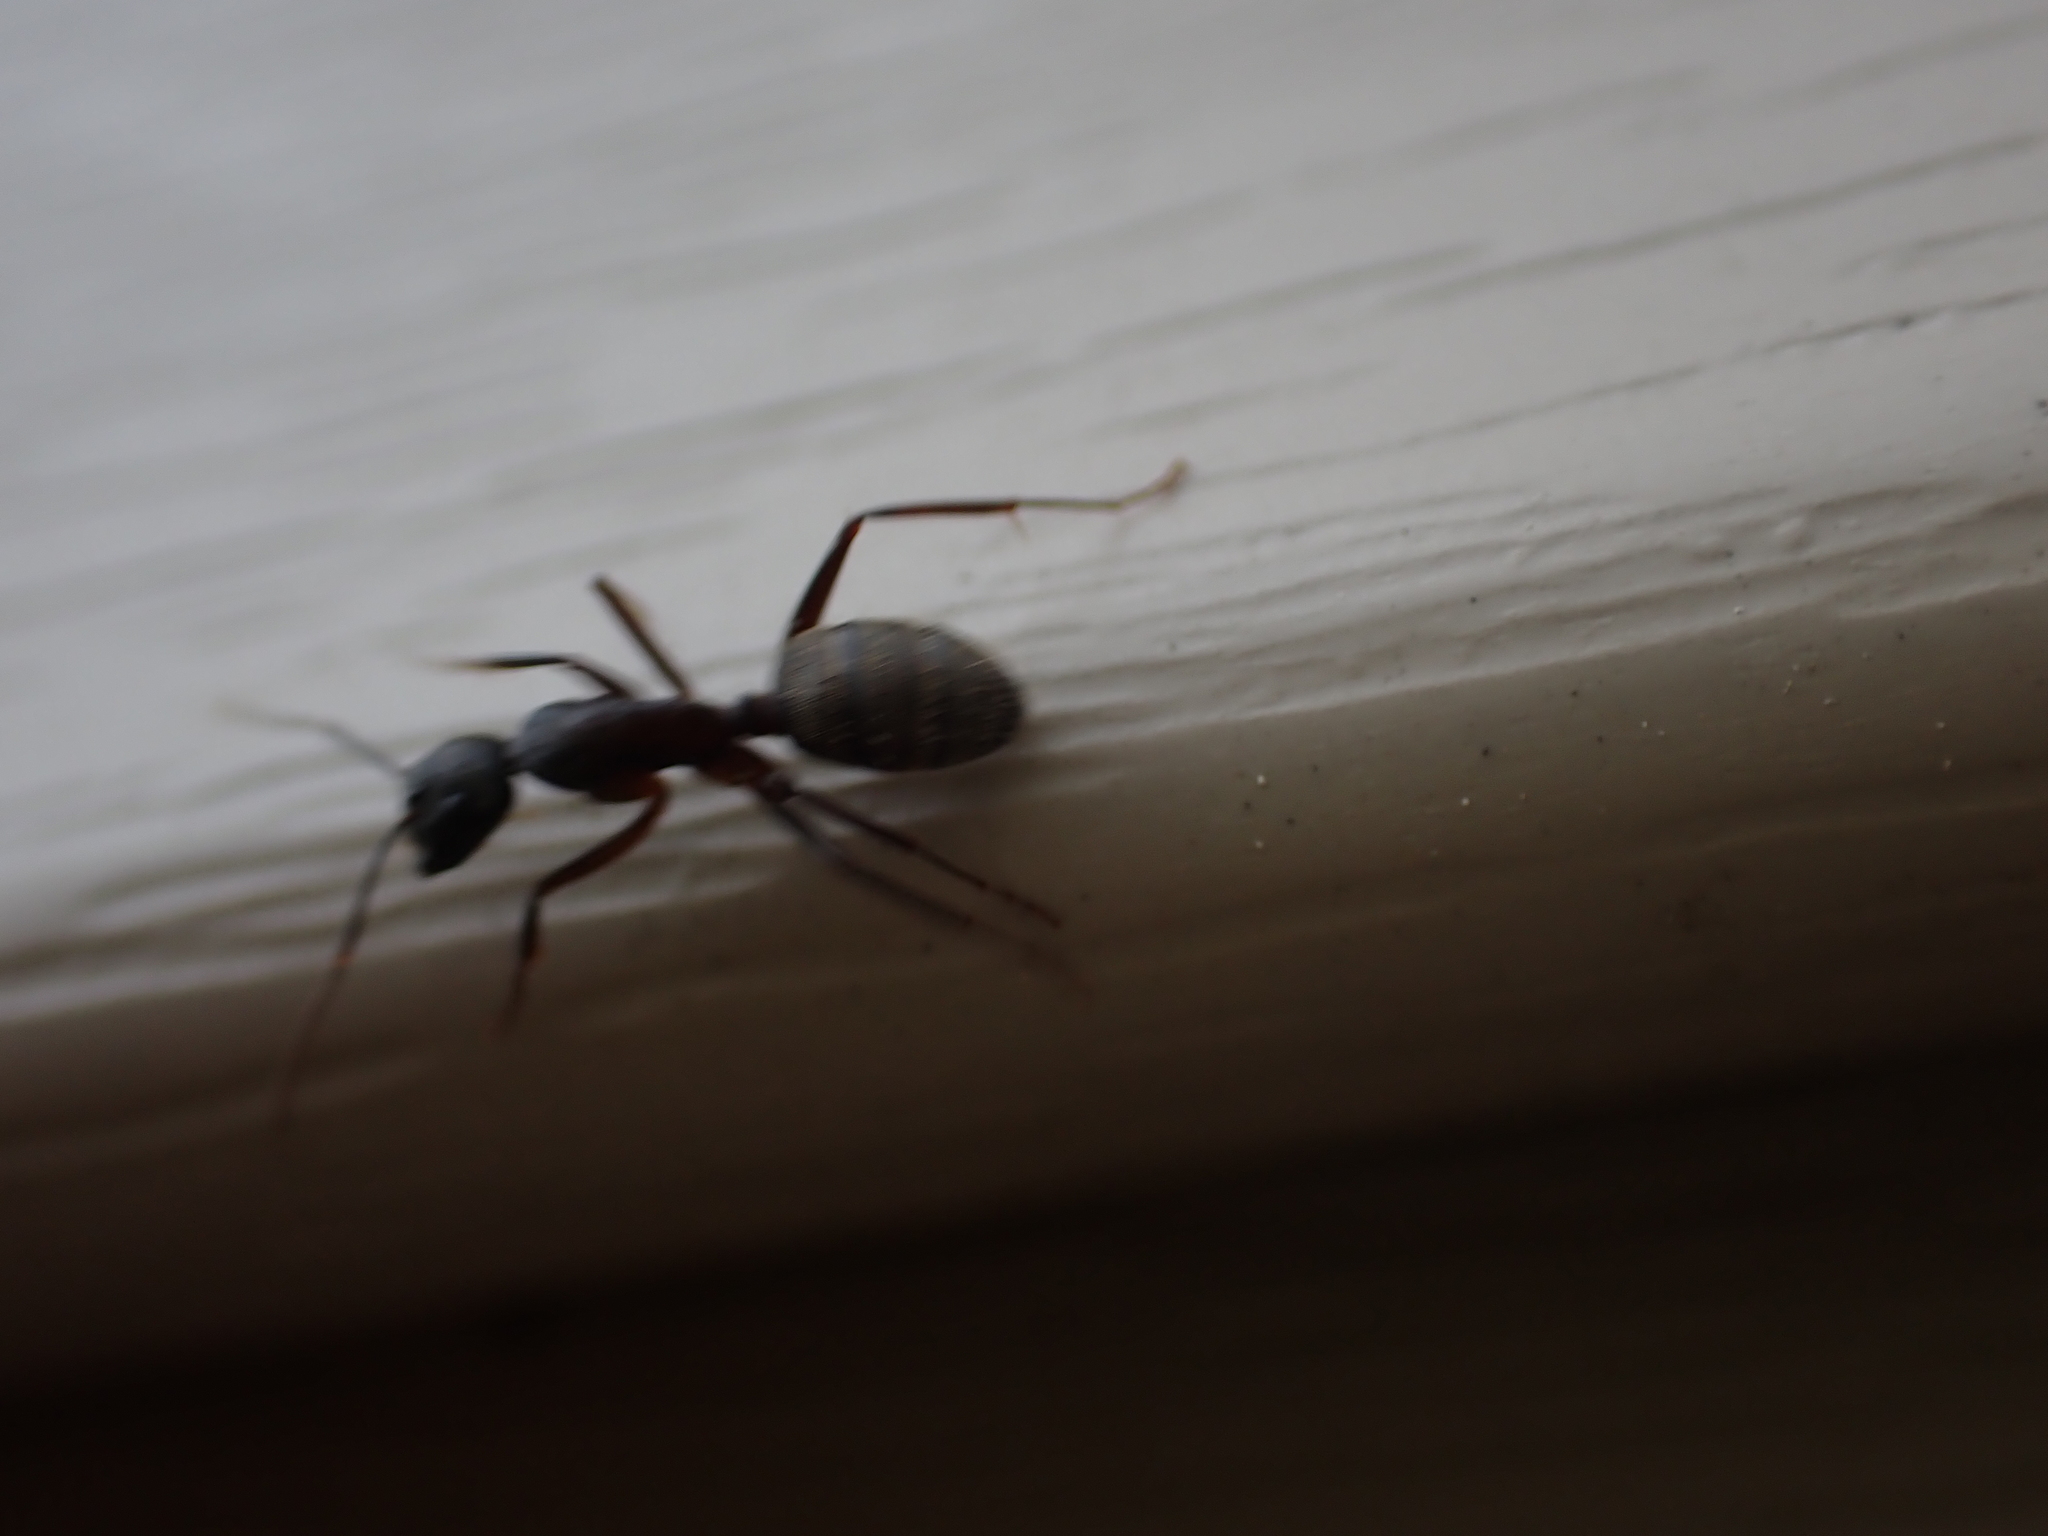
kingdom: Animalia
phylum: Arthropoda
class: Insecta
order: Hymenoptera
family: Formicidae
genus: Camponotus
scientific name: Camponotus chromaiodes
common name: Red carpenter ant
